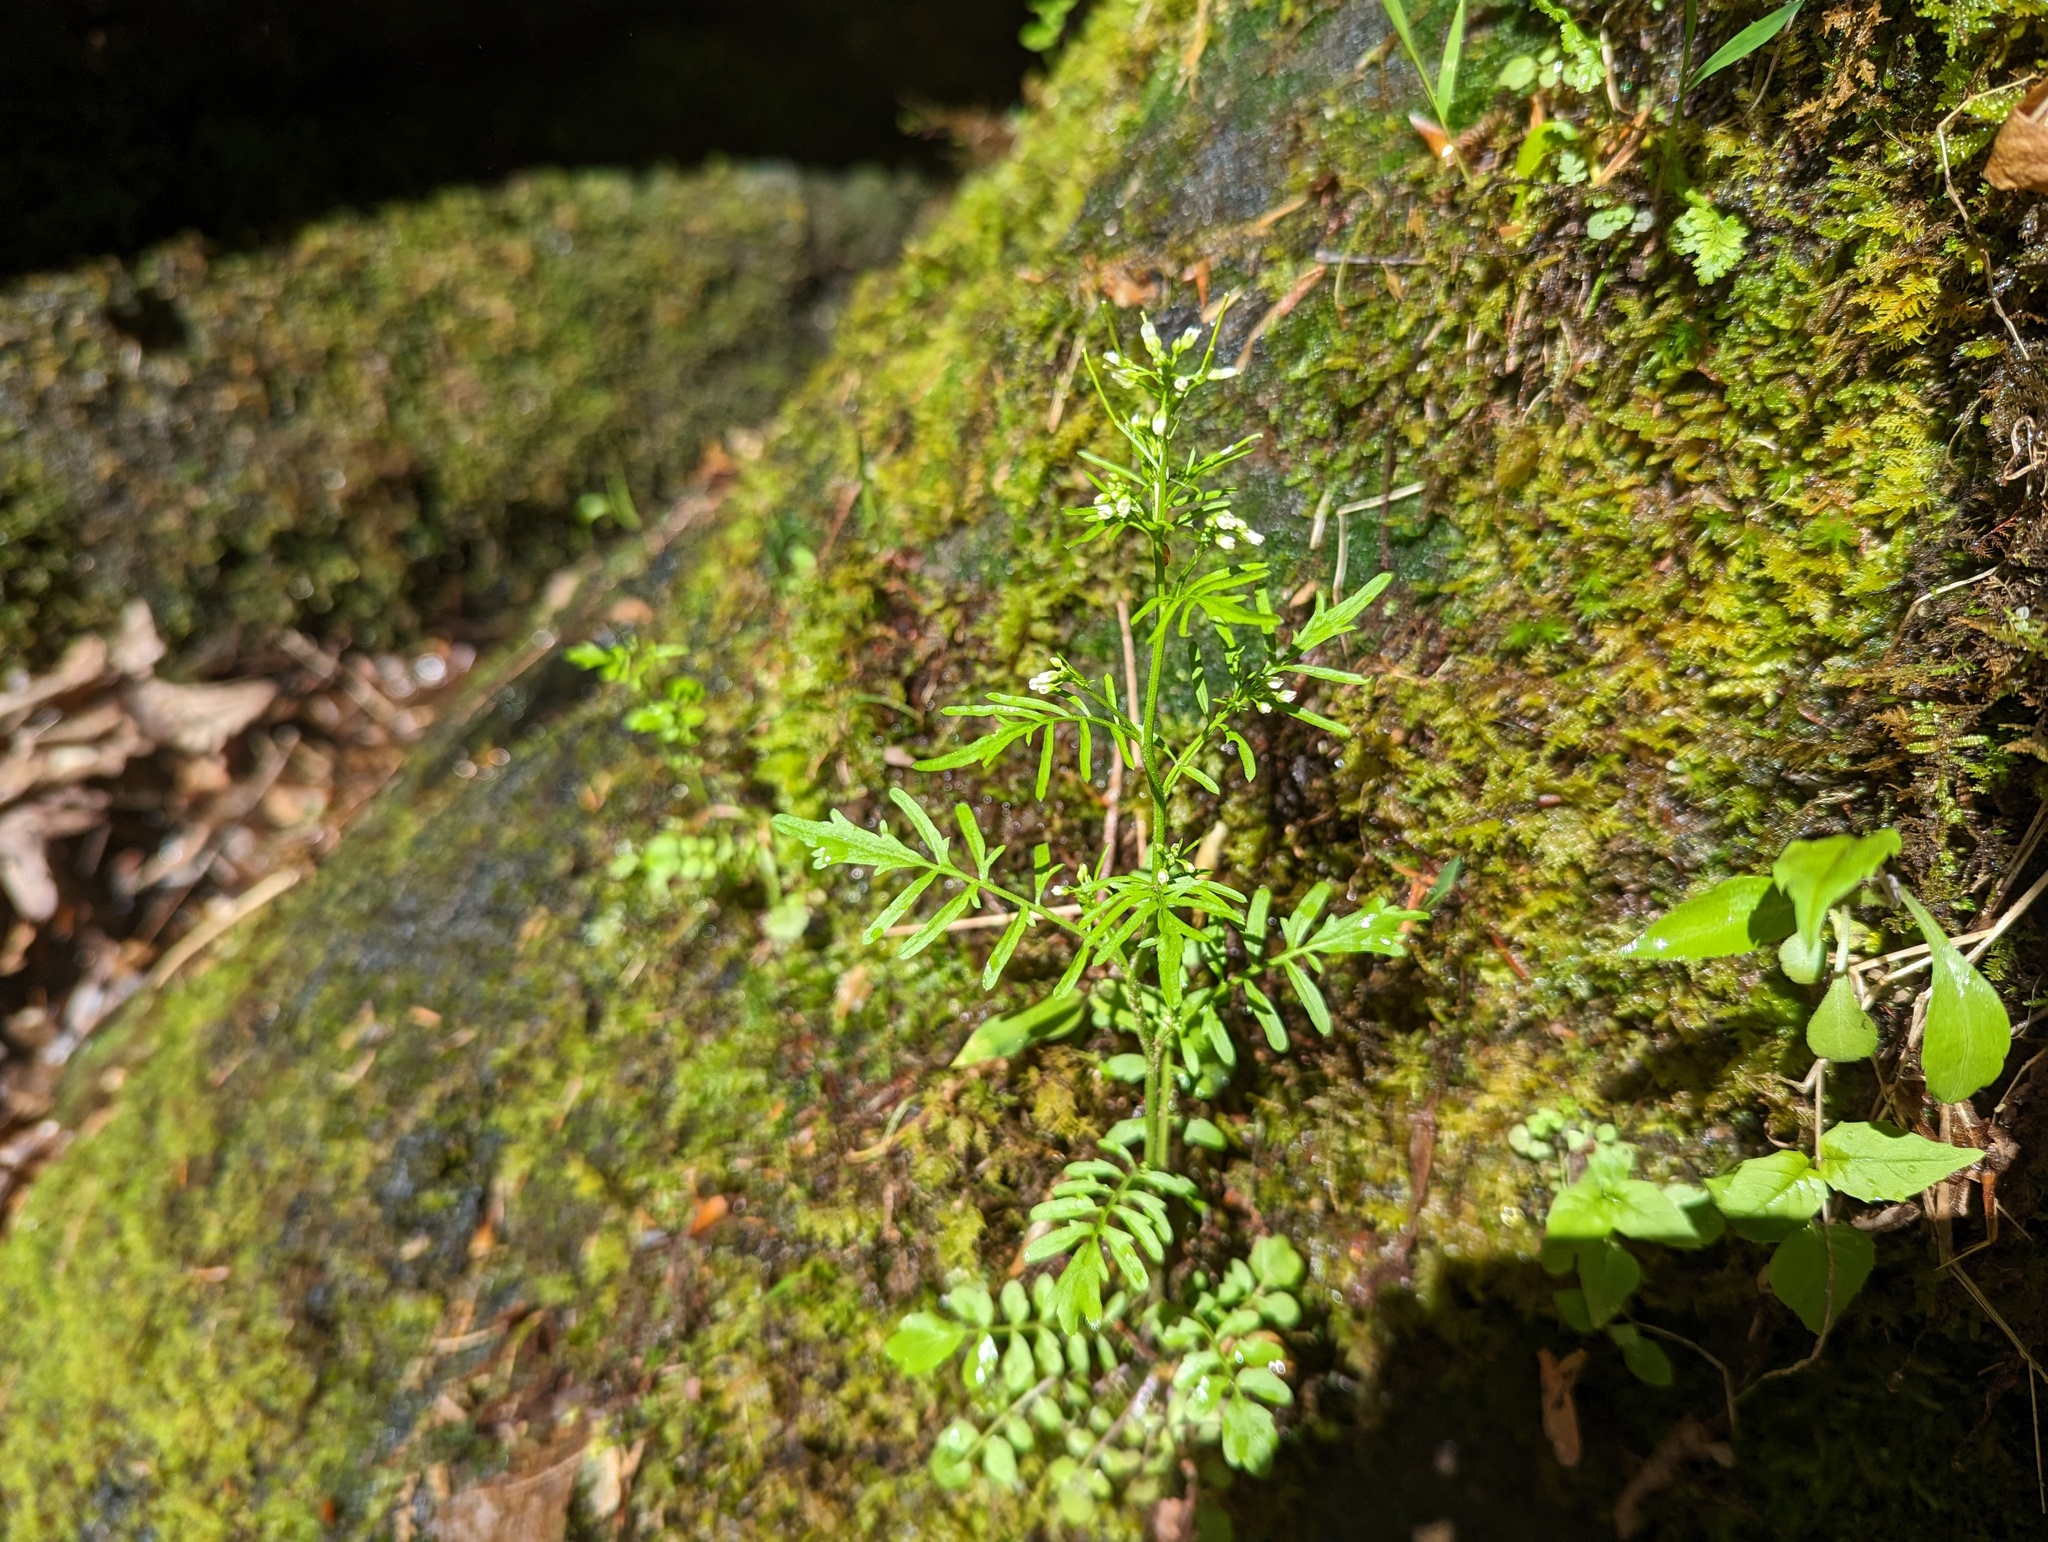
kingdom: Plantae
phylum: Tracheophyta
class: Magnoliopsida
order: Brassicales
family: Brassicaceae
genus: Cardamine
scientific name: Cardamine pensylvanica
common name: Pennsylvania bittercress
